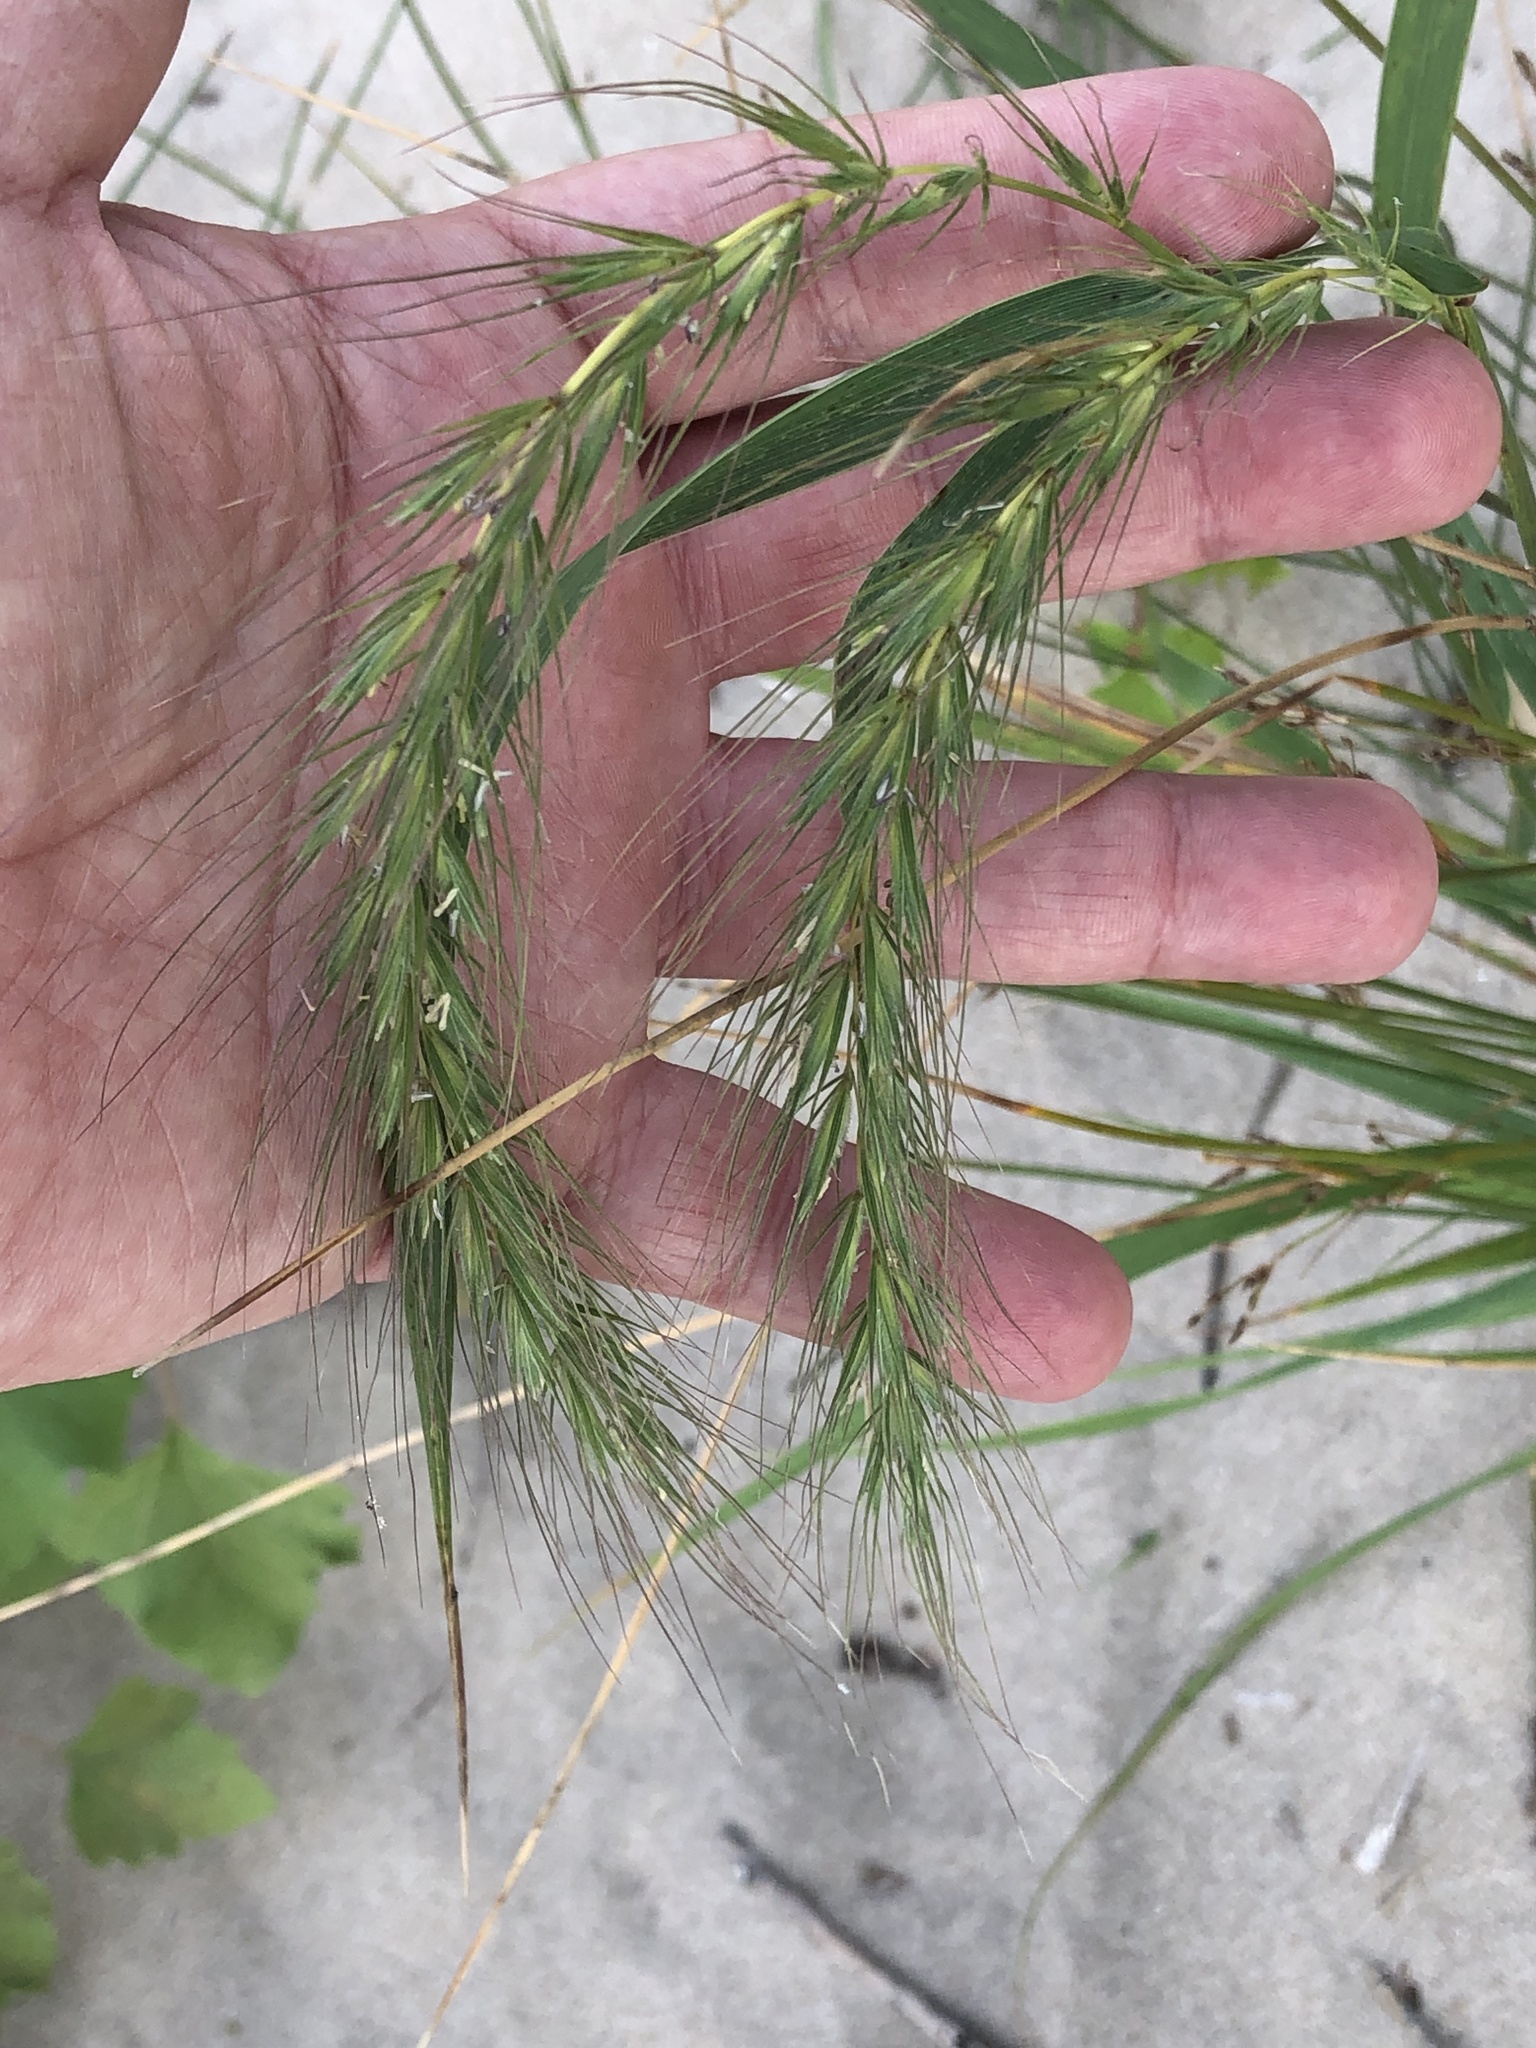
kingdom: Plantae
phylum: Tracheophyta
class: Liliopsida
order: Poales
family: Poaceae
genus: Elymus
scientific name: Elymus canadensis
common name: Canada wild rye
